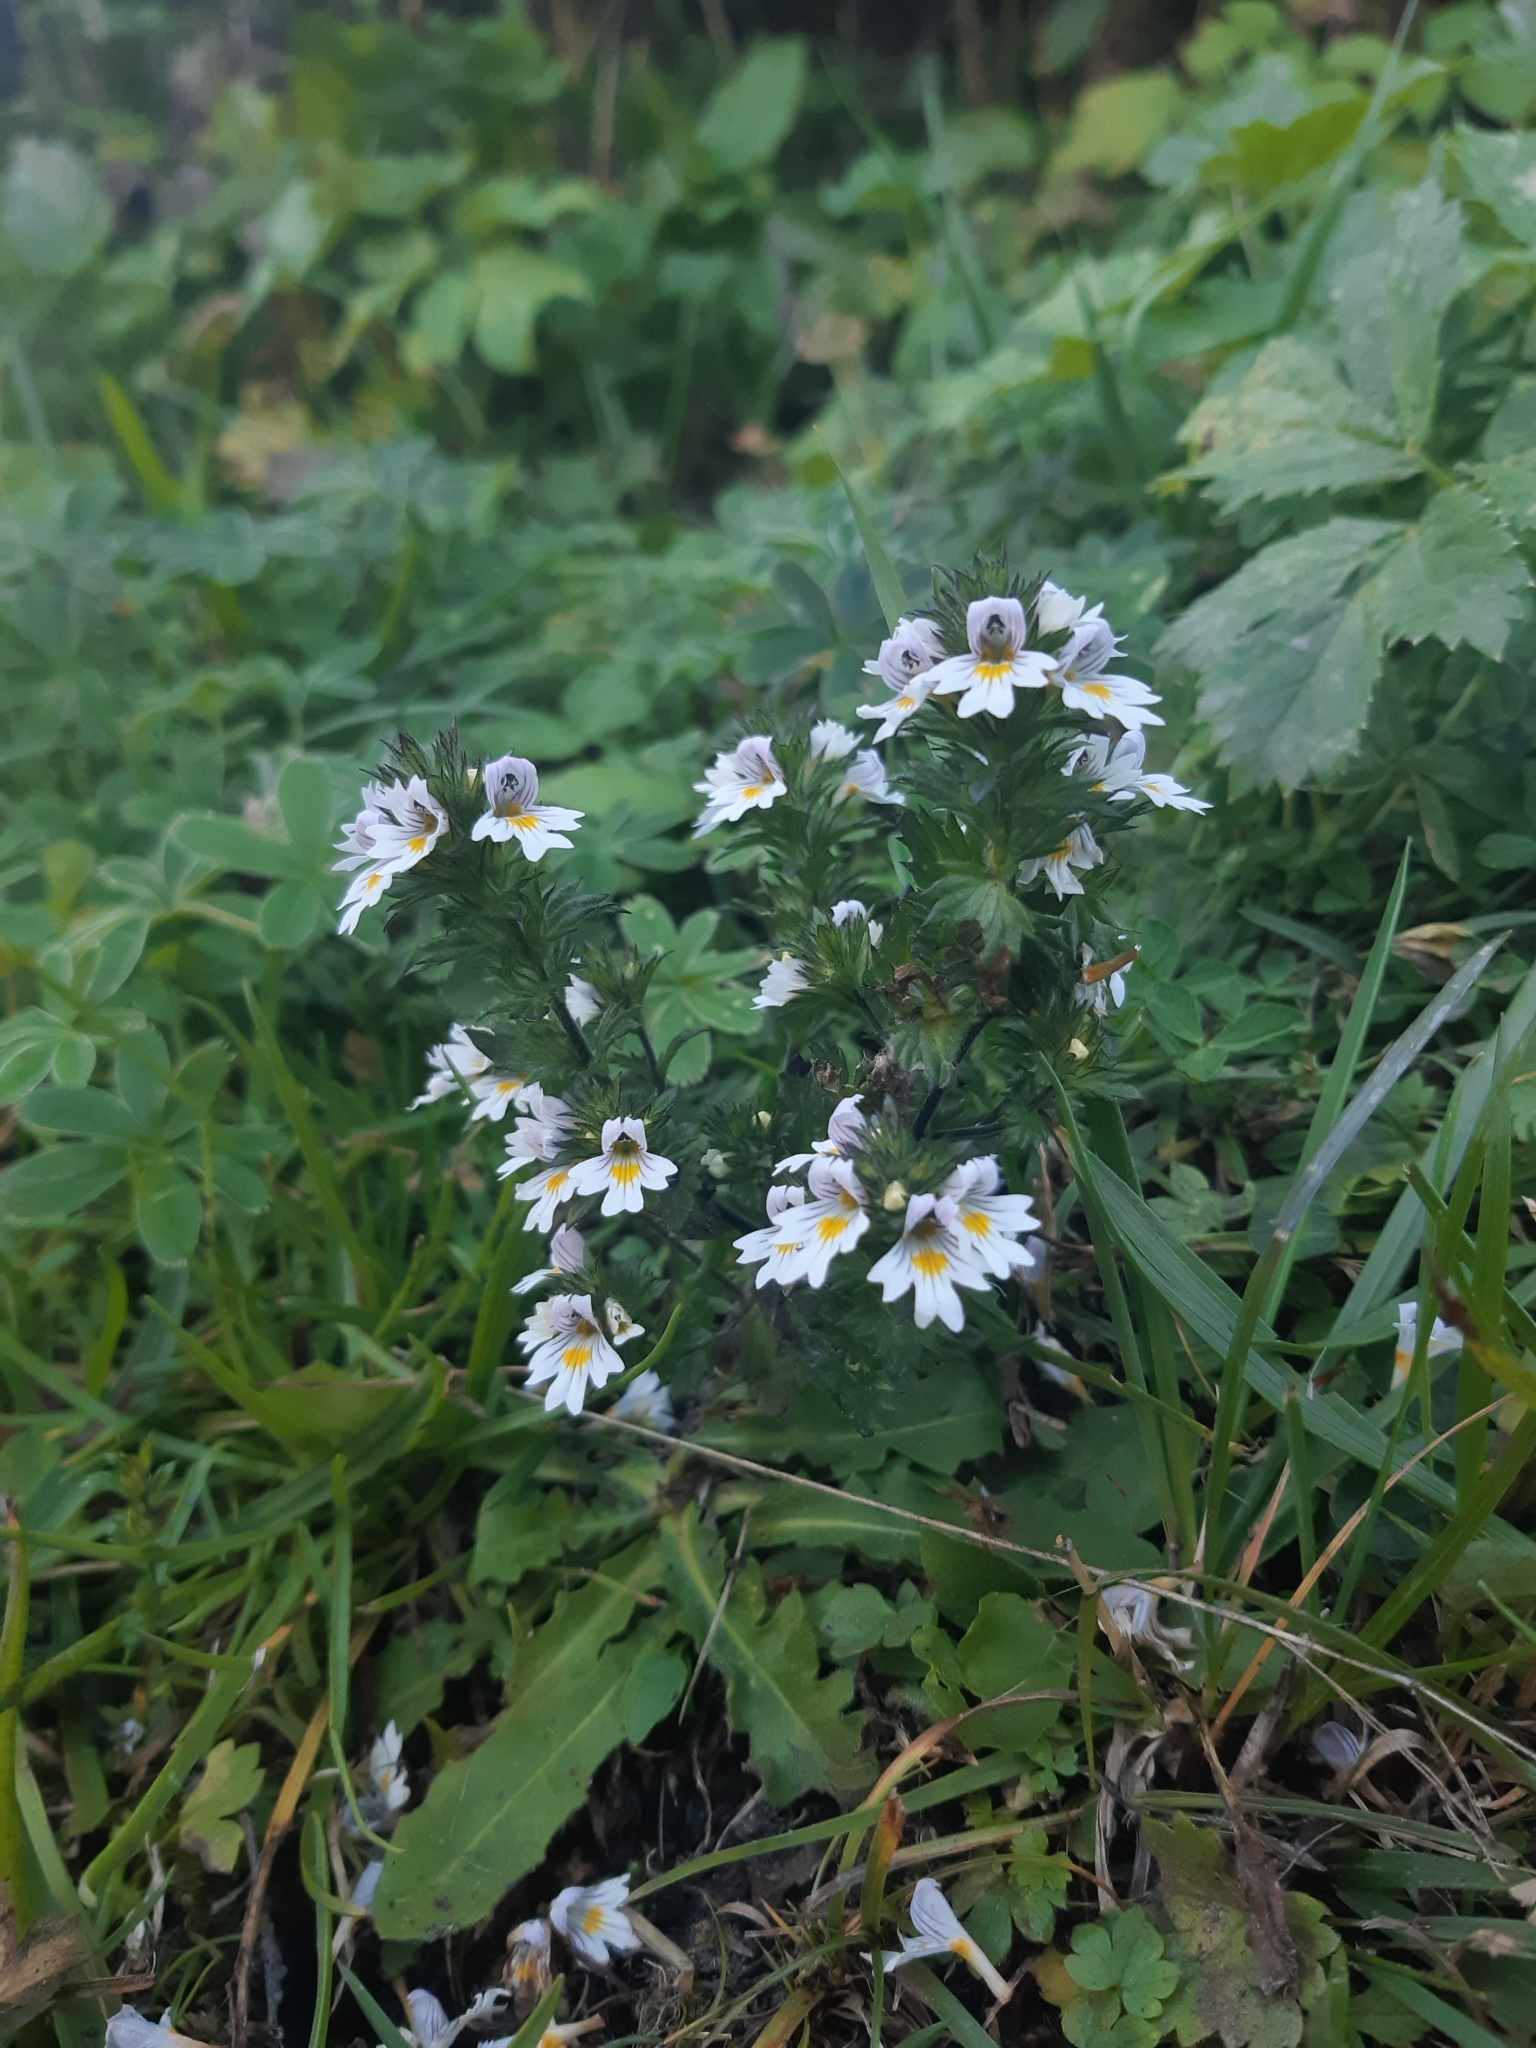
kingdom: Plantae
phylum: Tracheophyta
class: Magnoliopsida
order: Lamiales
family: Orobanchaceae
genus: Euphrasia
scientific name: Euphrasia officinalis
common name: Eyebright
